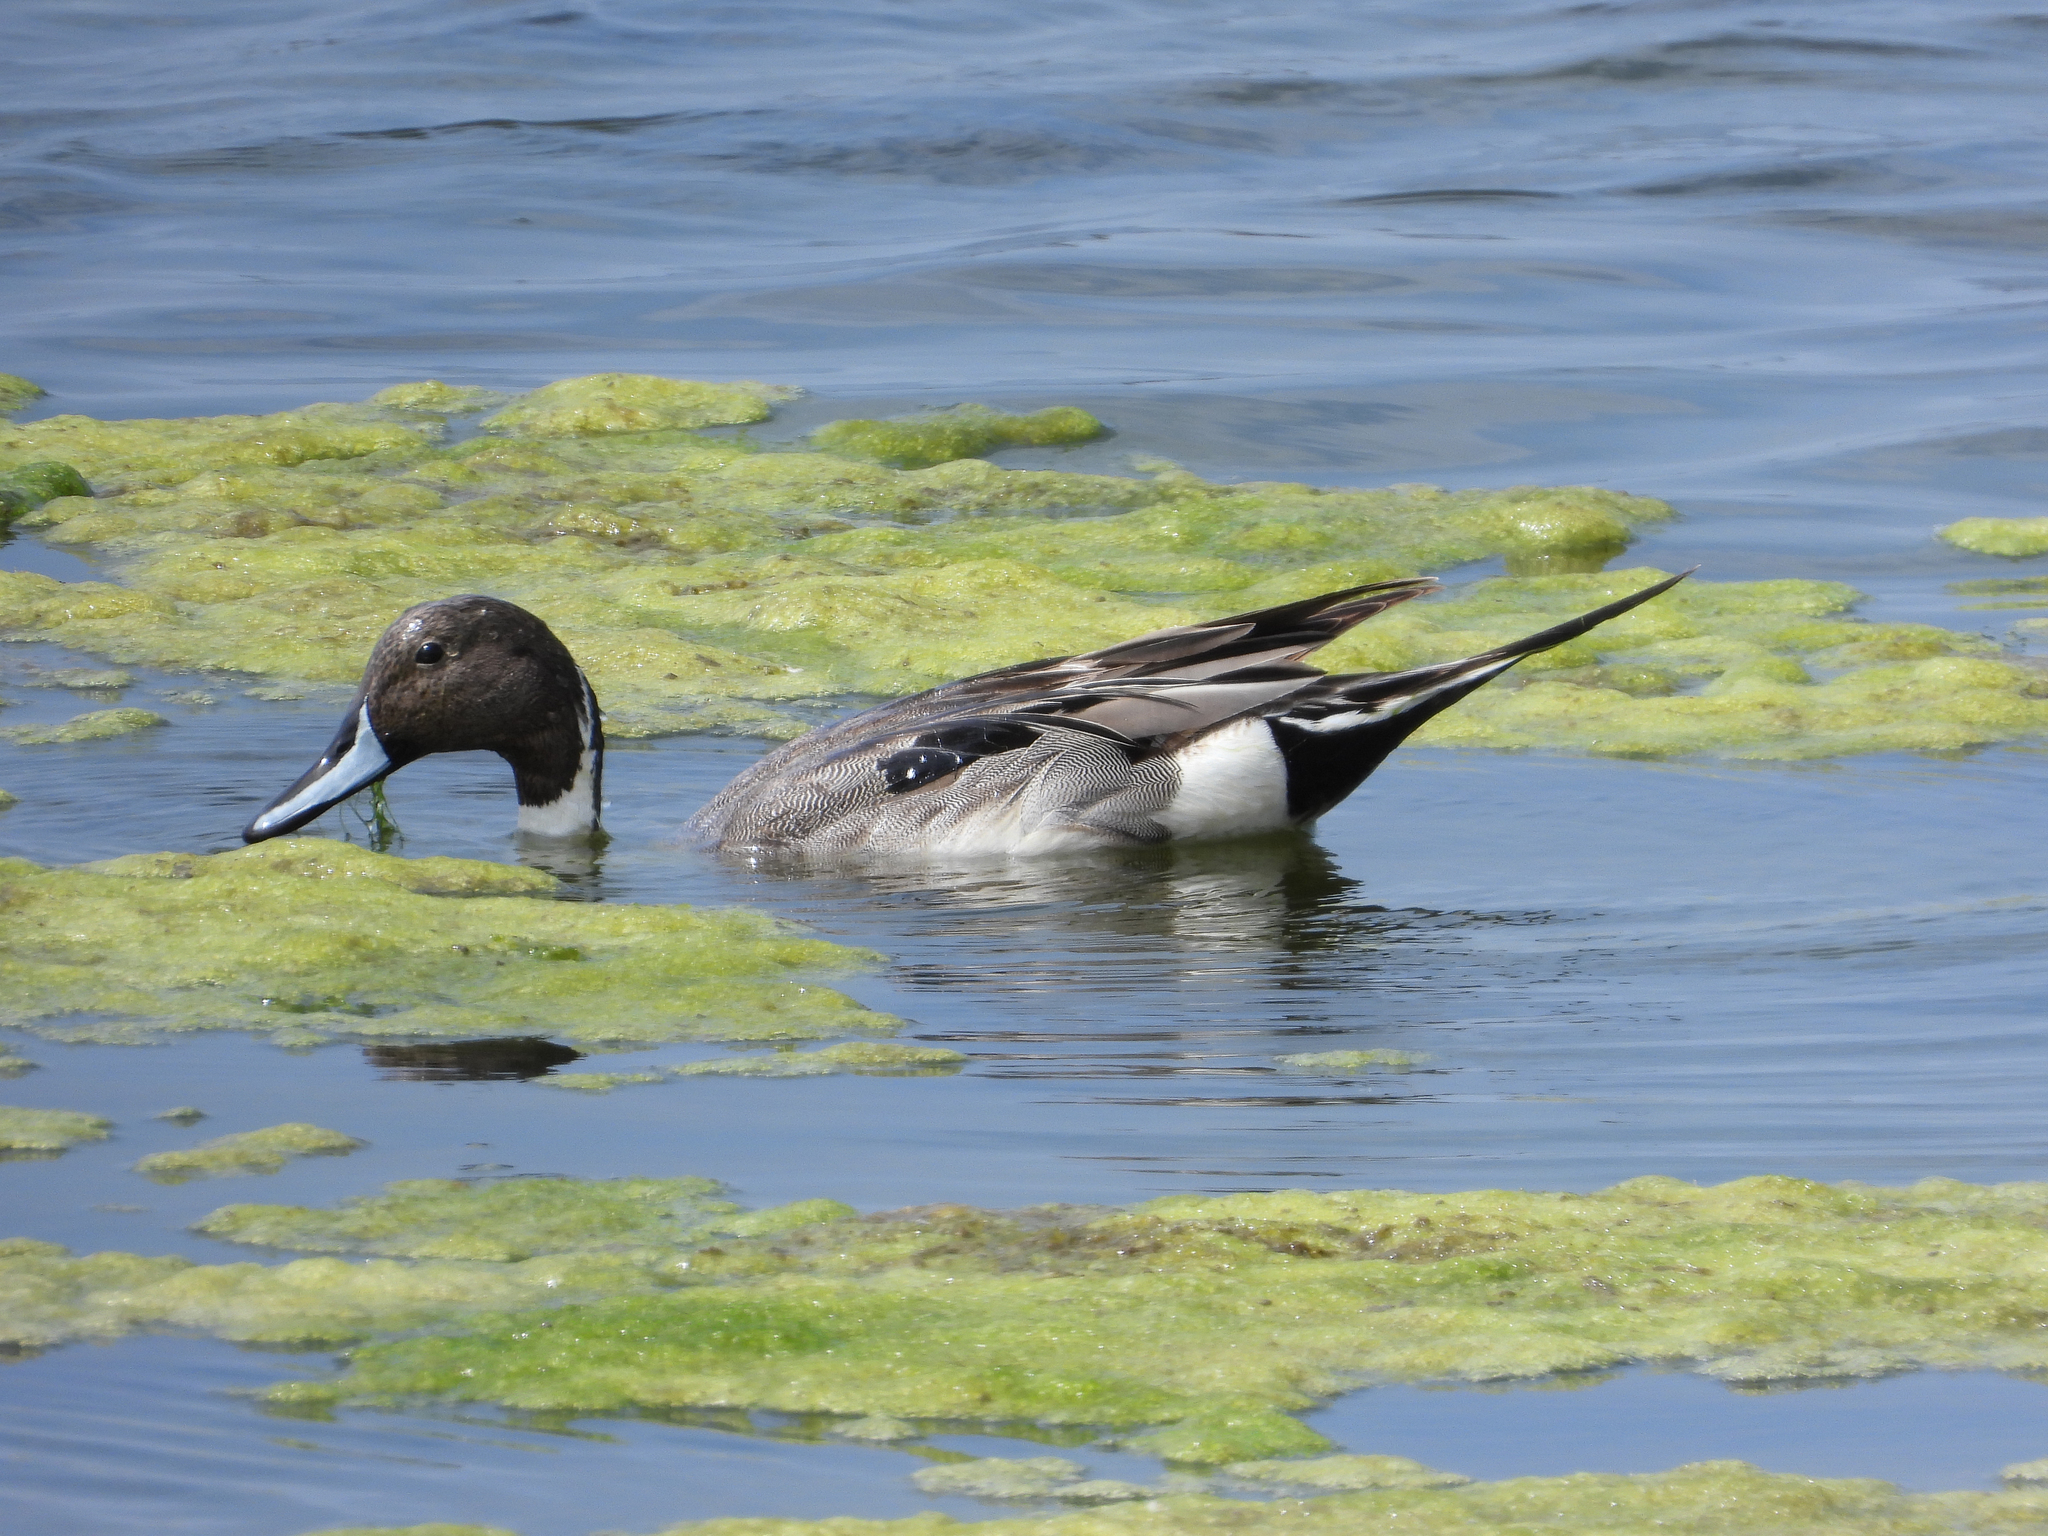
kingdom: Animalia
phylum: Chordata
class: Aves
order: Anseriformes
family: Anatidae
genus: Anas
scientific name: Anas acuta
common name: Northern pintail
